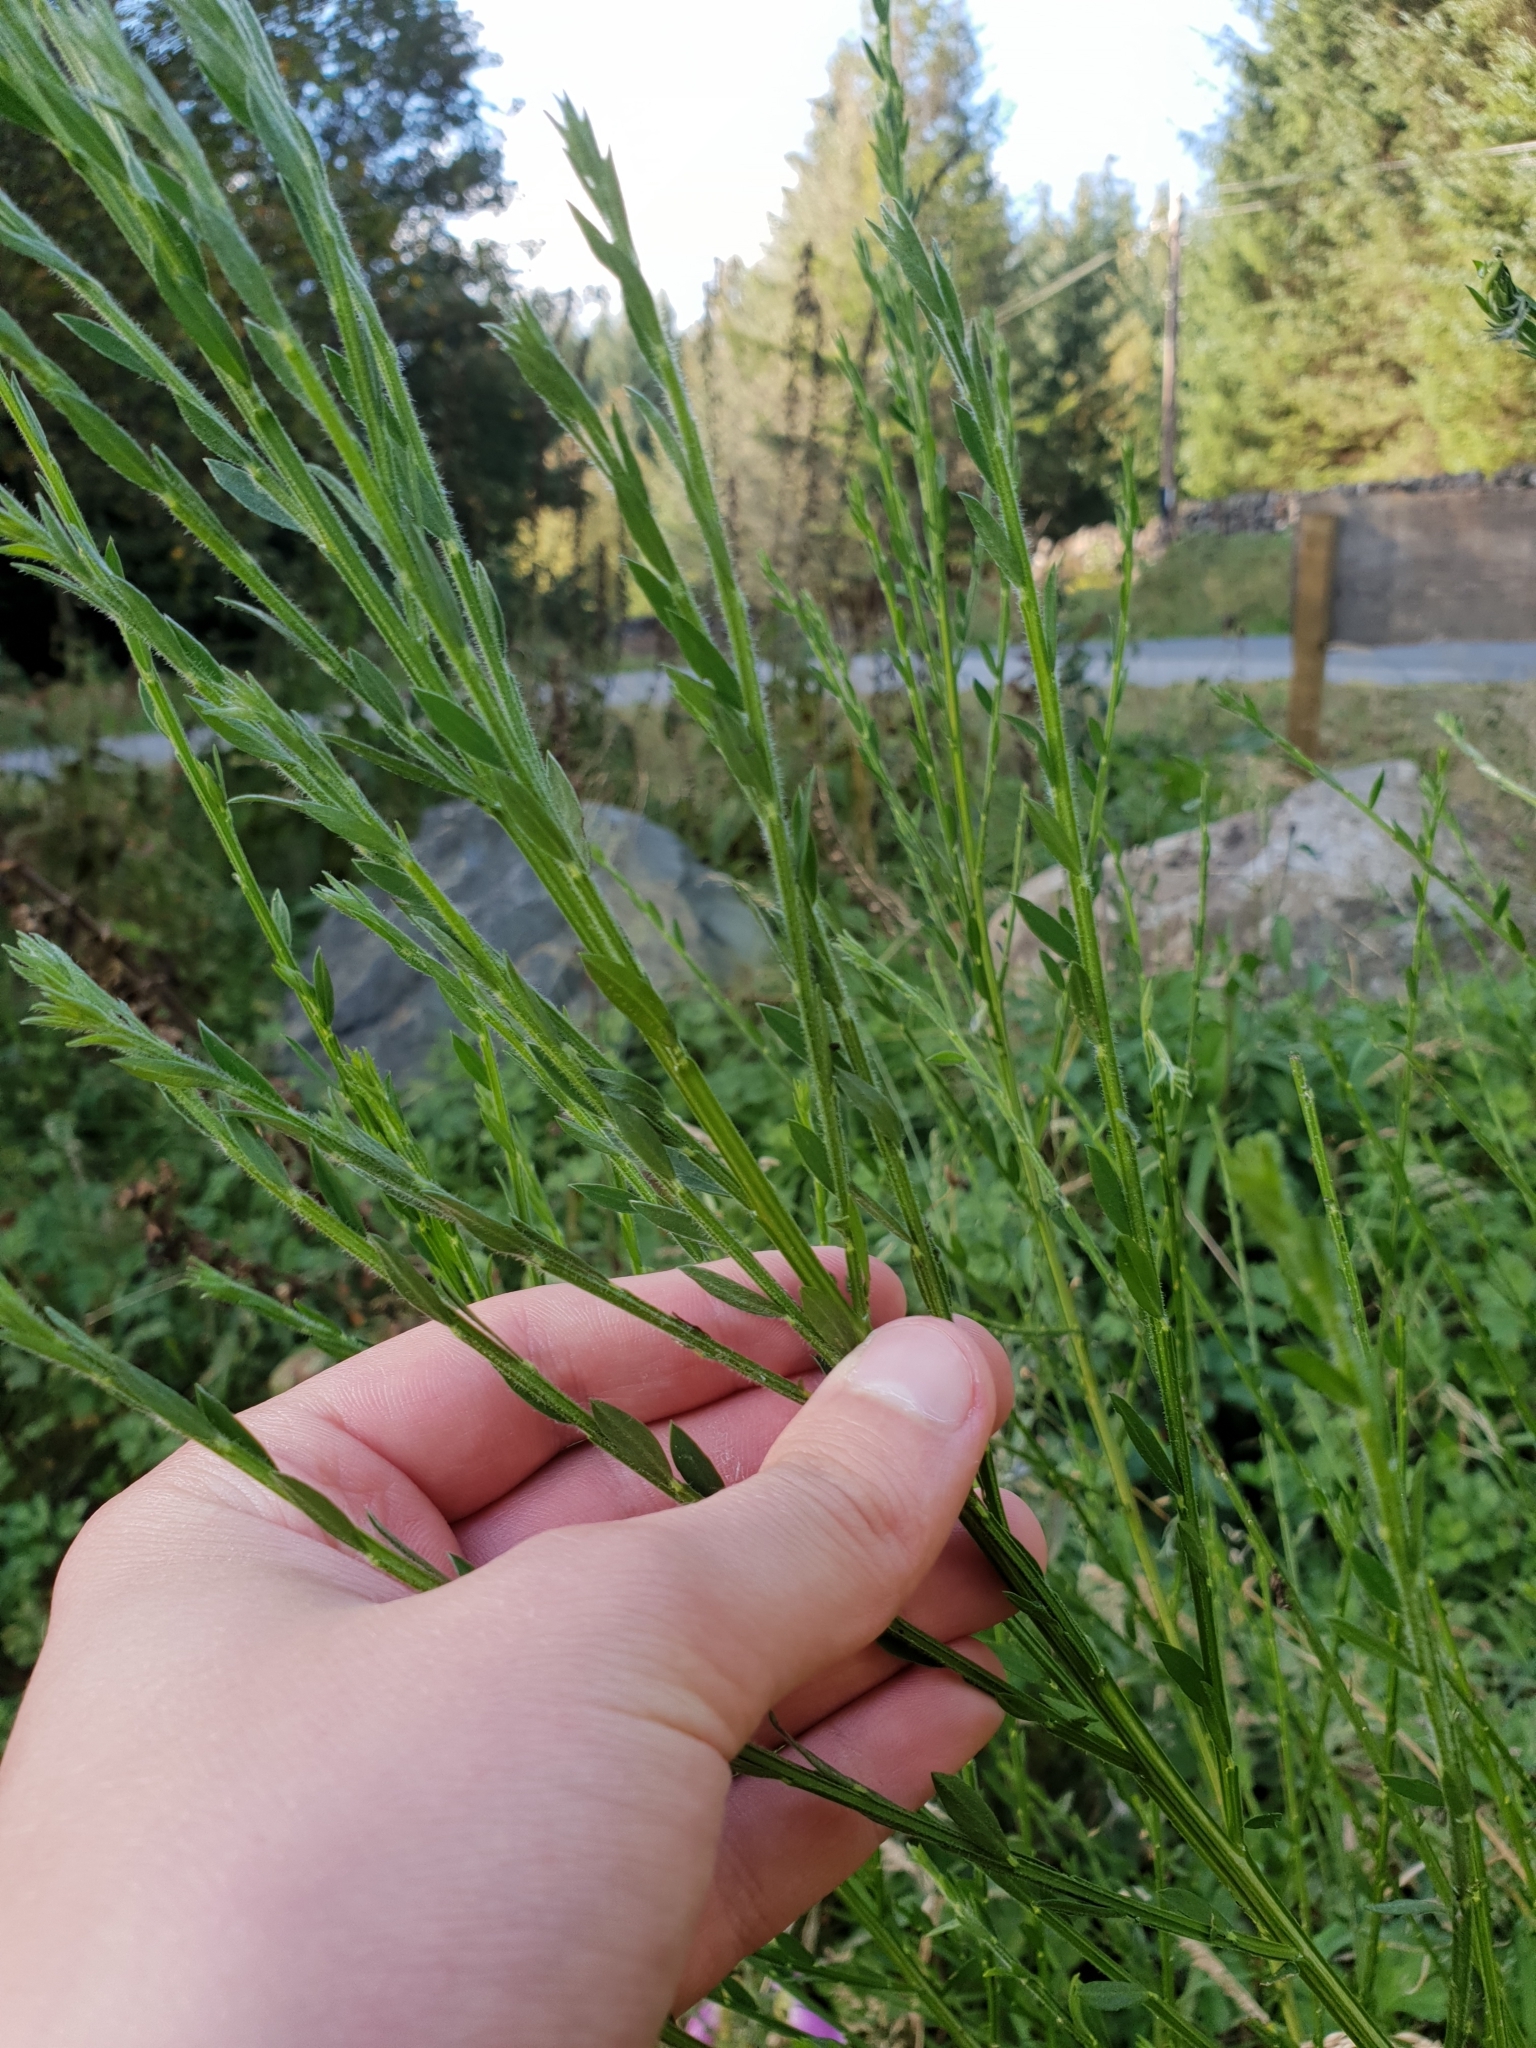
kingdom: Plantae
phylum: Tracheophyta
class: Magnoliopsida
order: Fabales
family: Fabaceae
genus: Cytisus
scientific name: Cytisus scoparius
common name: Scotch broom
